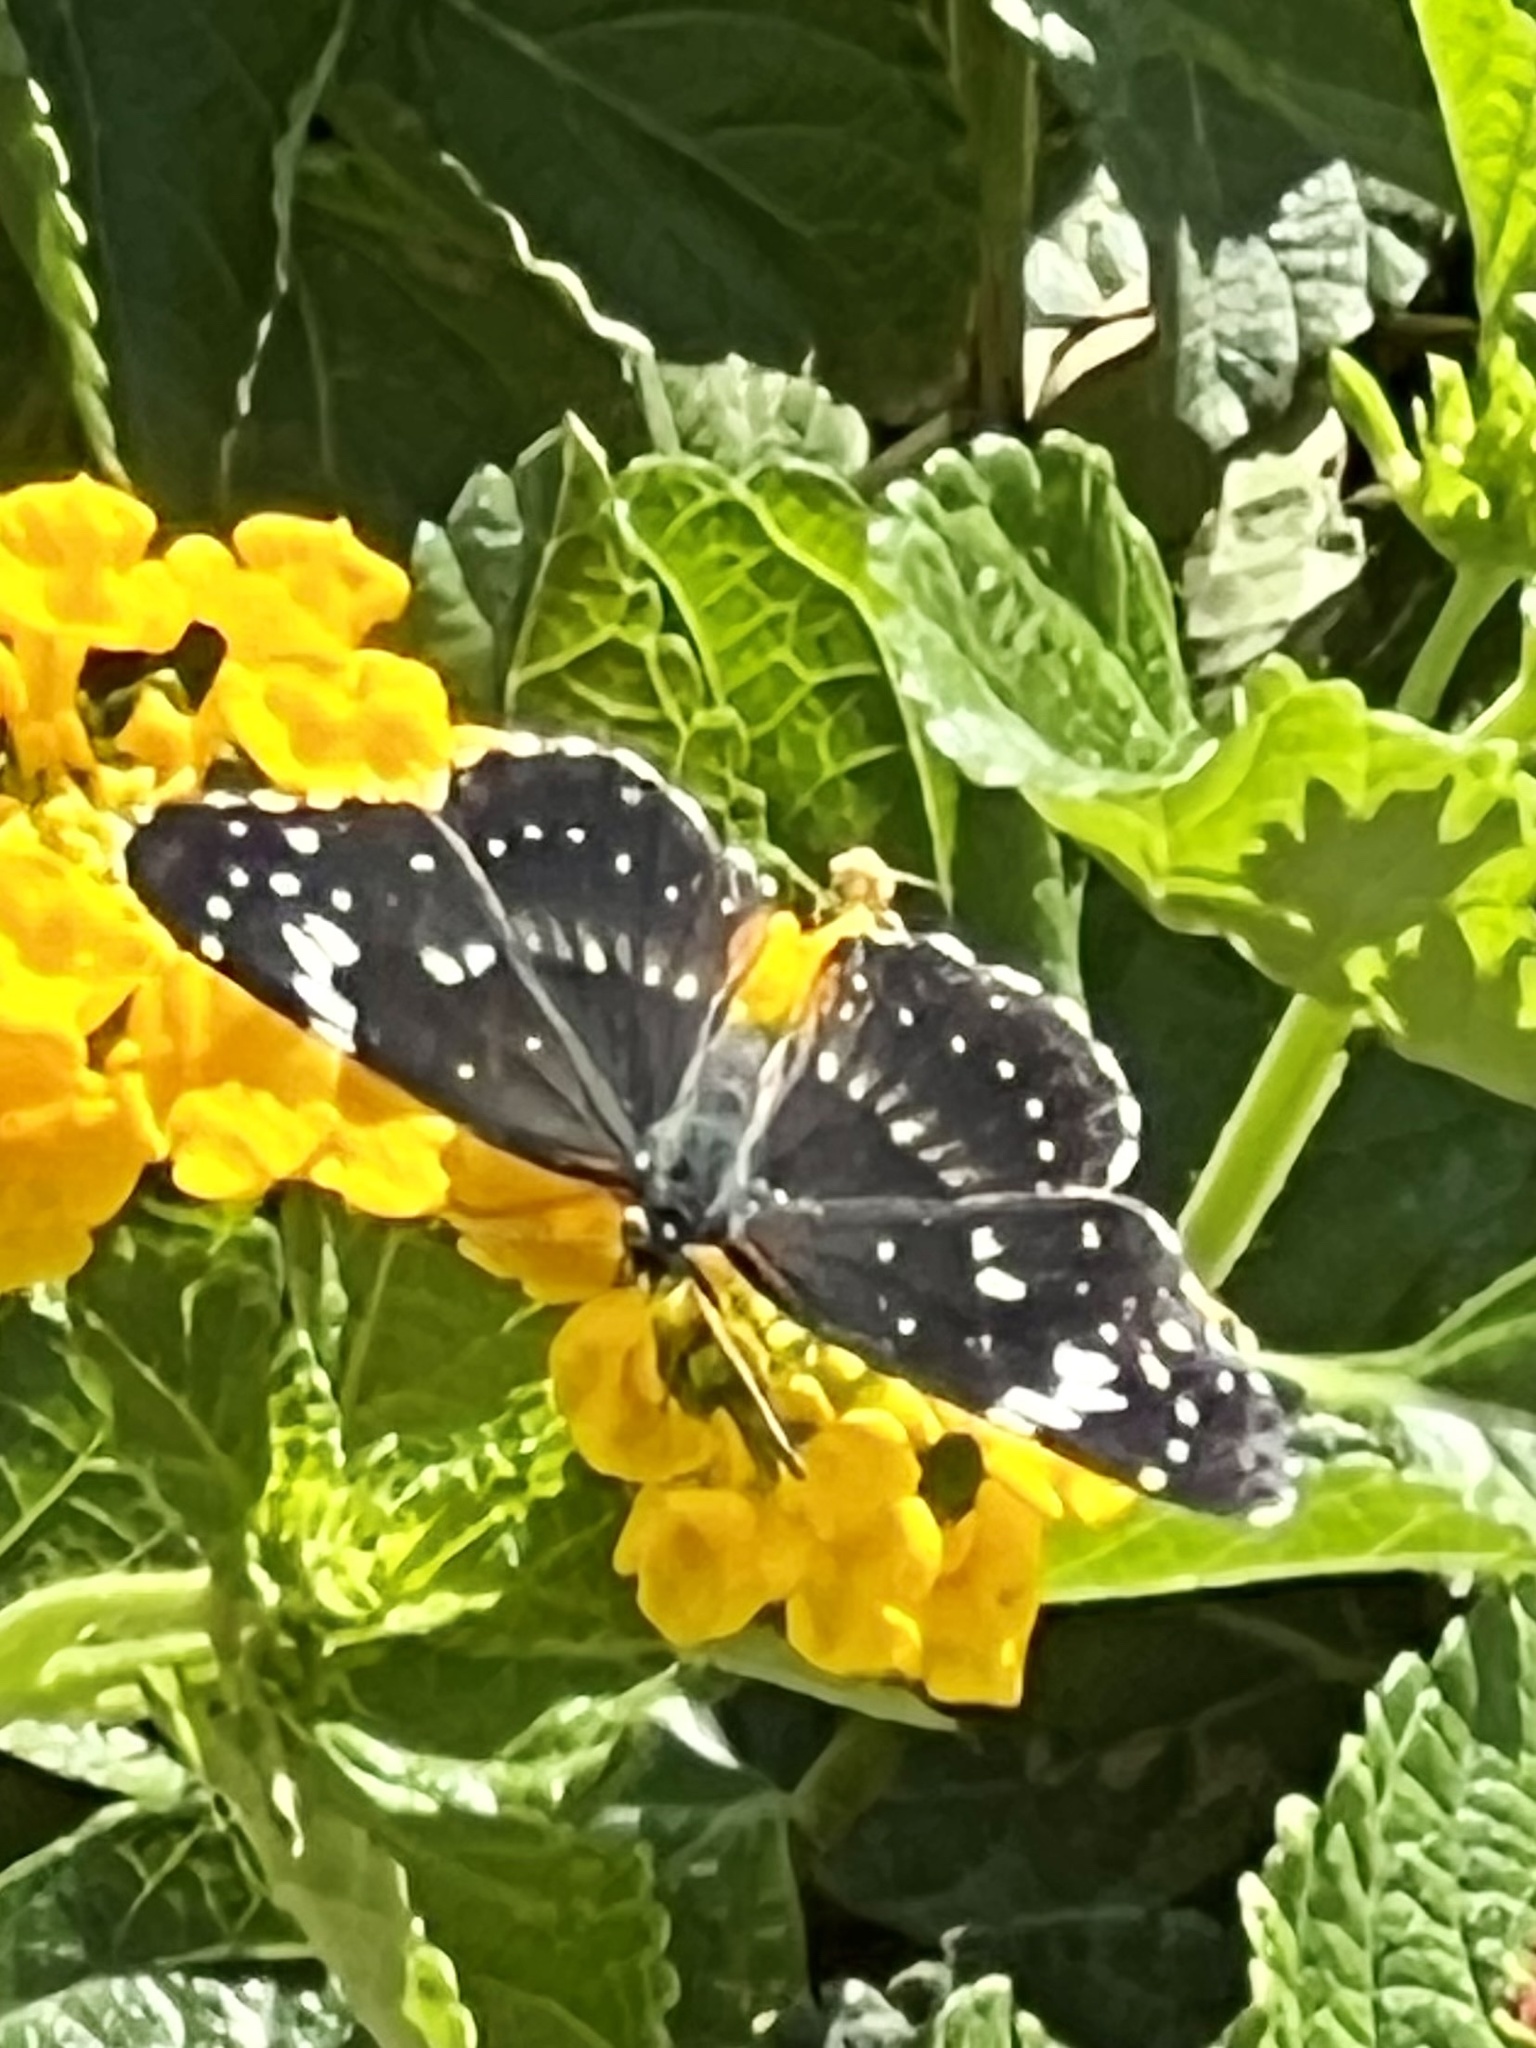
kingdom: Animalia
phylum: Arthropoda
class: Insecta
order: Lepidoptera
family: Nymphalidae
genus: Chlosyne
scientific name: Chlosyne lacinia
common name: Bordered patch
